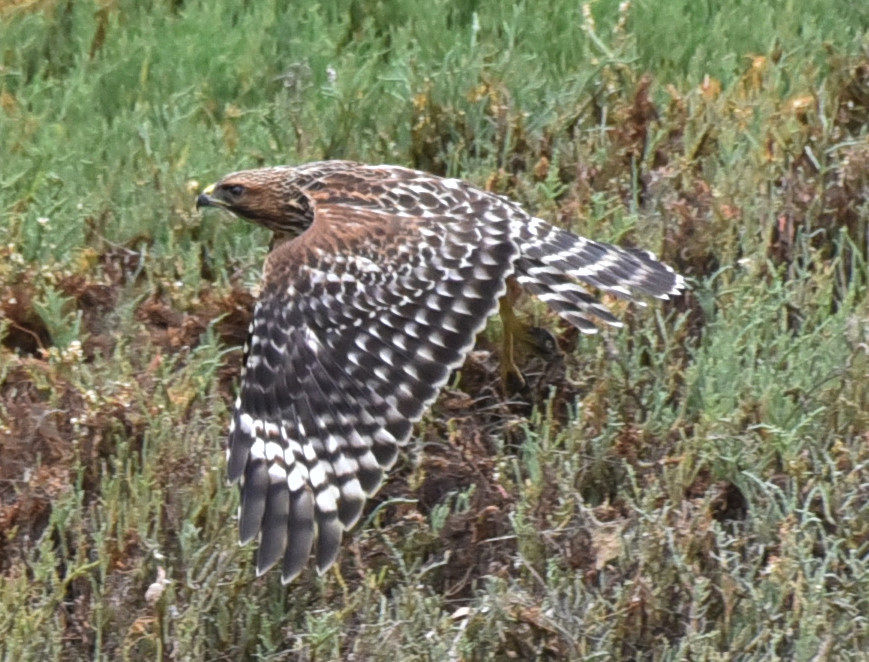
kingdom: Animalia
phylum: Chordata
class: Aves
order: Accipitriformes
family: Accipitridae
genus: Buteo
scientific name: Buteo lineatus
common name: Red-shouldered hawk
